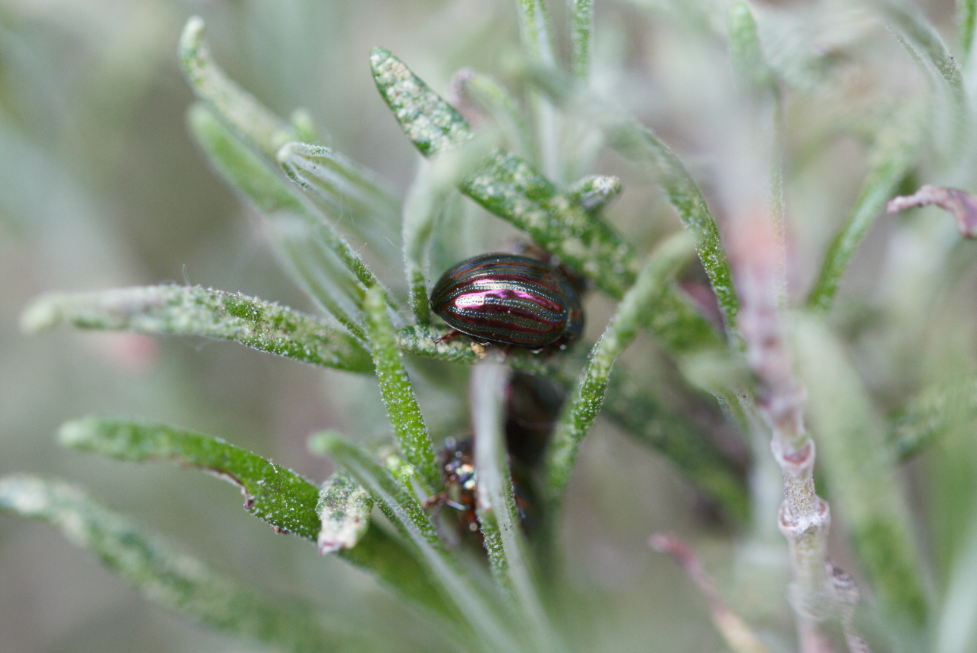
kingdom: Animalia
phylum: Arthropoda
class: Insecta
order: Coleoptera
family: Chrysomelidae
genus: Chrysolina
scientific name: Chrysolina americana
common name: Rosemary beetle
